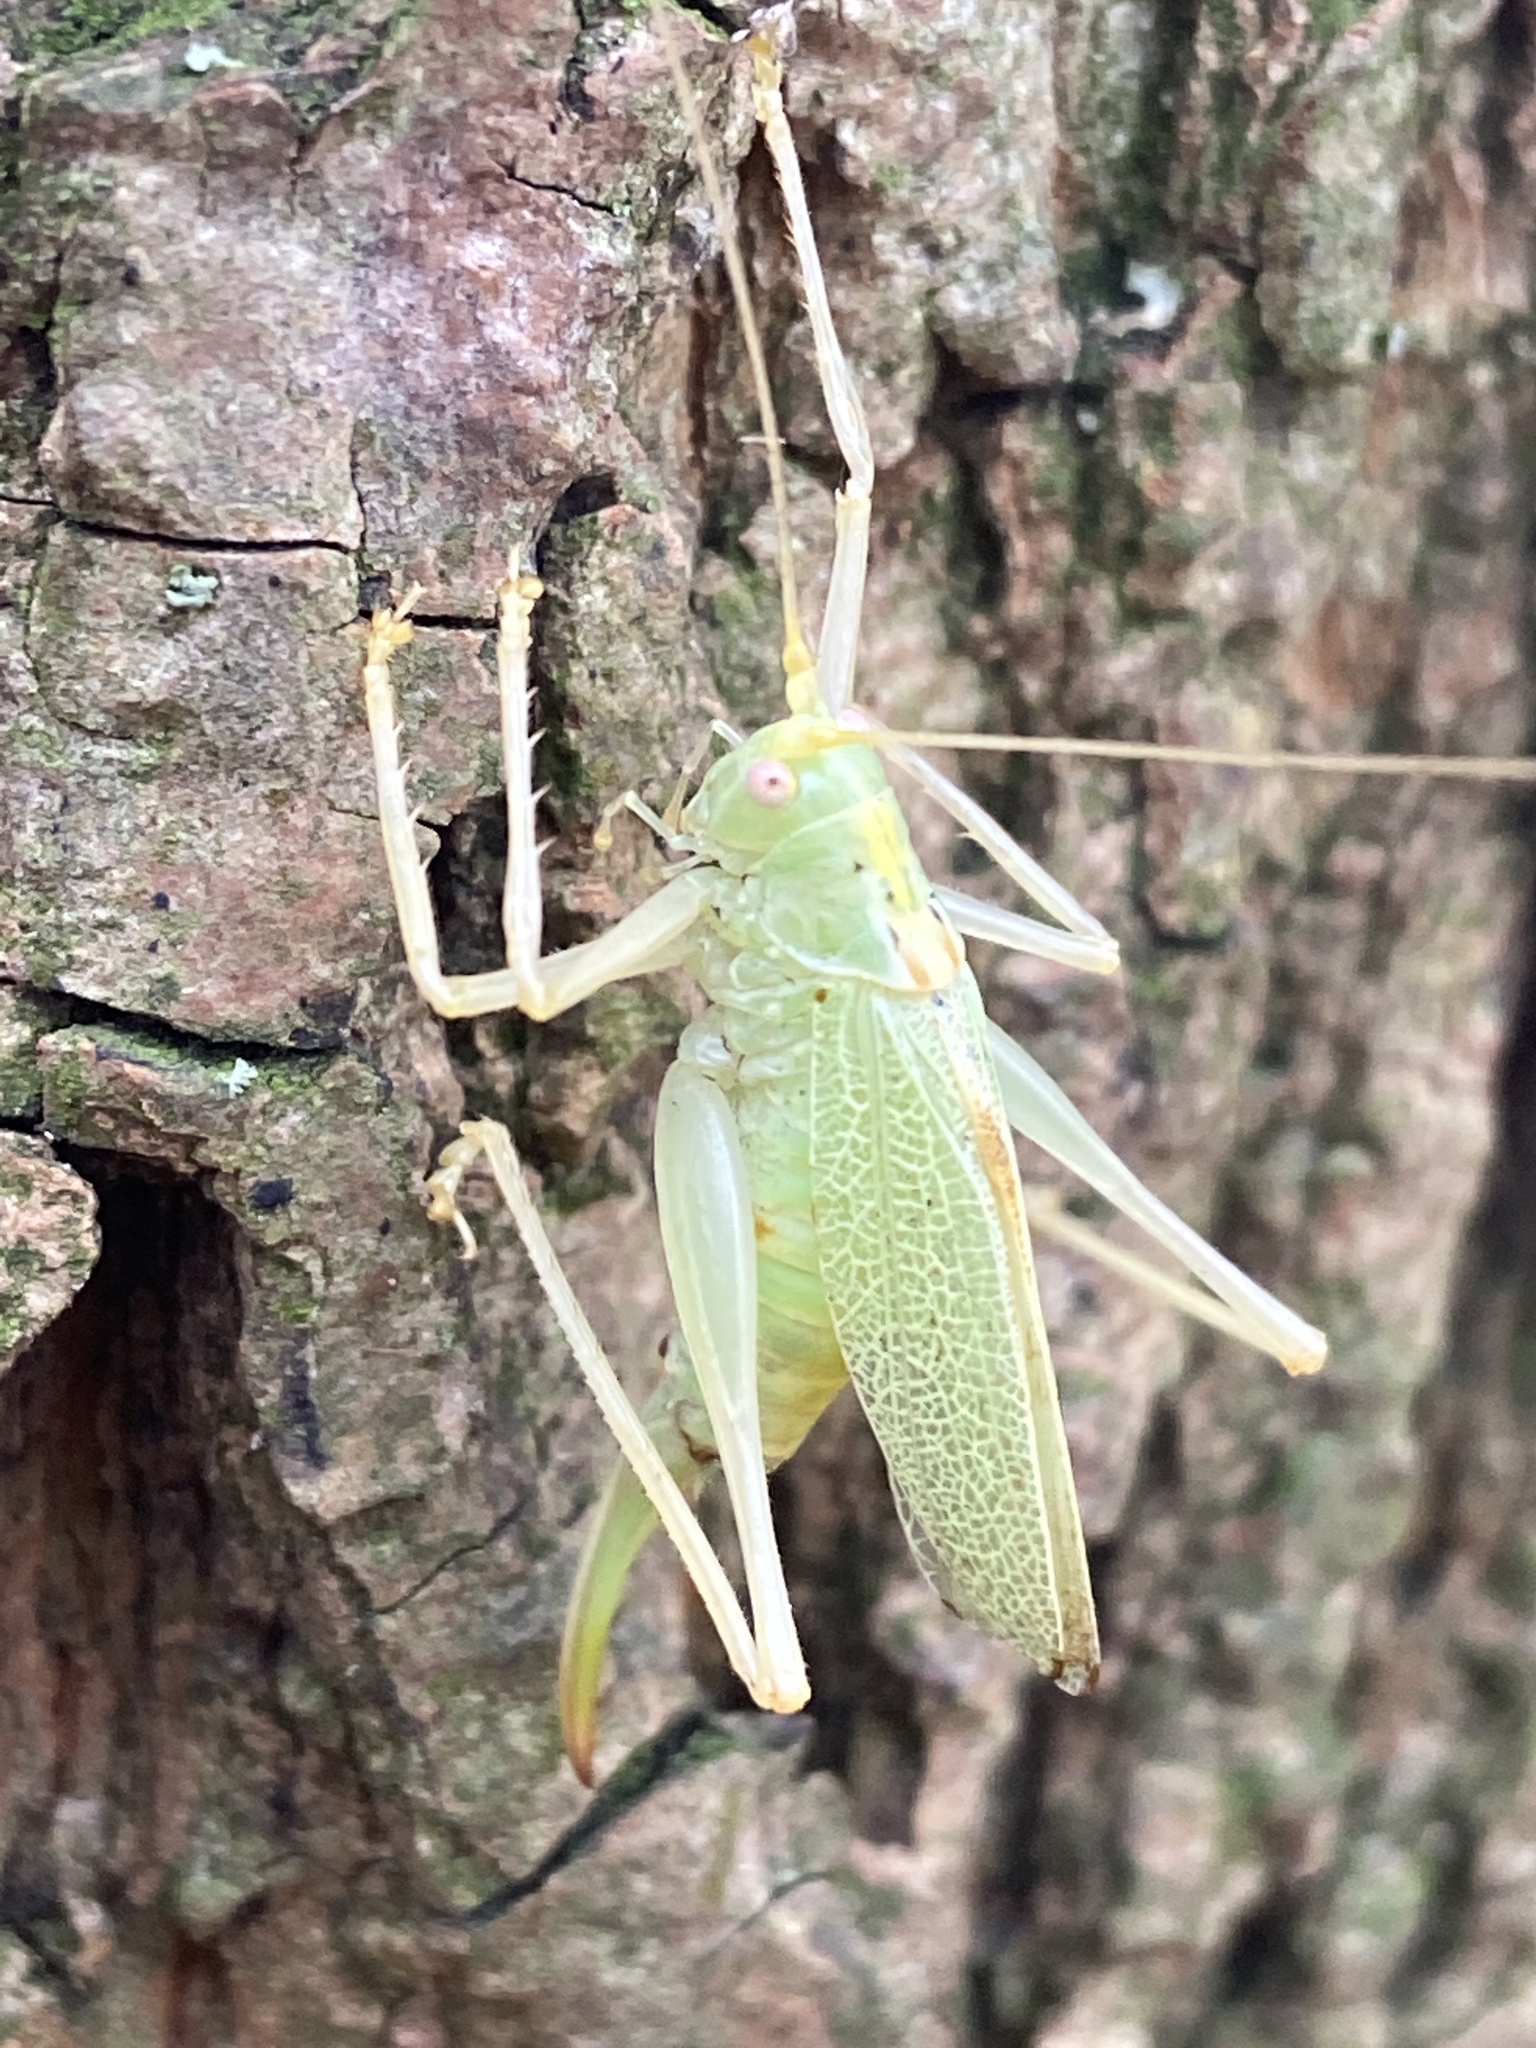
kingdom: Animalia
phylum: Arthropoda
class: Insecta
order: Orthoptera
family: Tettigoniidae
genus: Meconema
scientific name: Meconema thalassinum
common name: Oak bush-cricket
